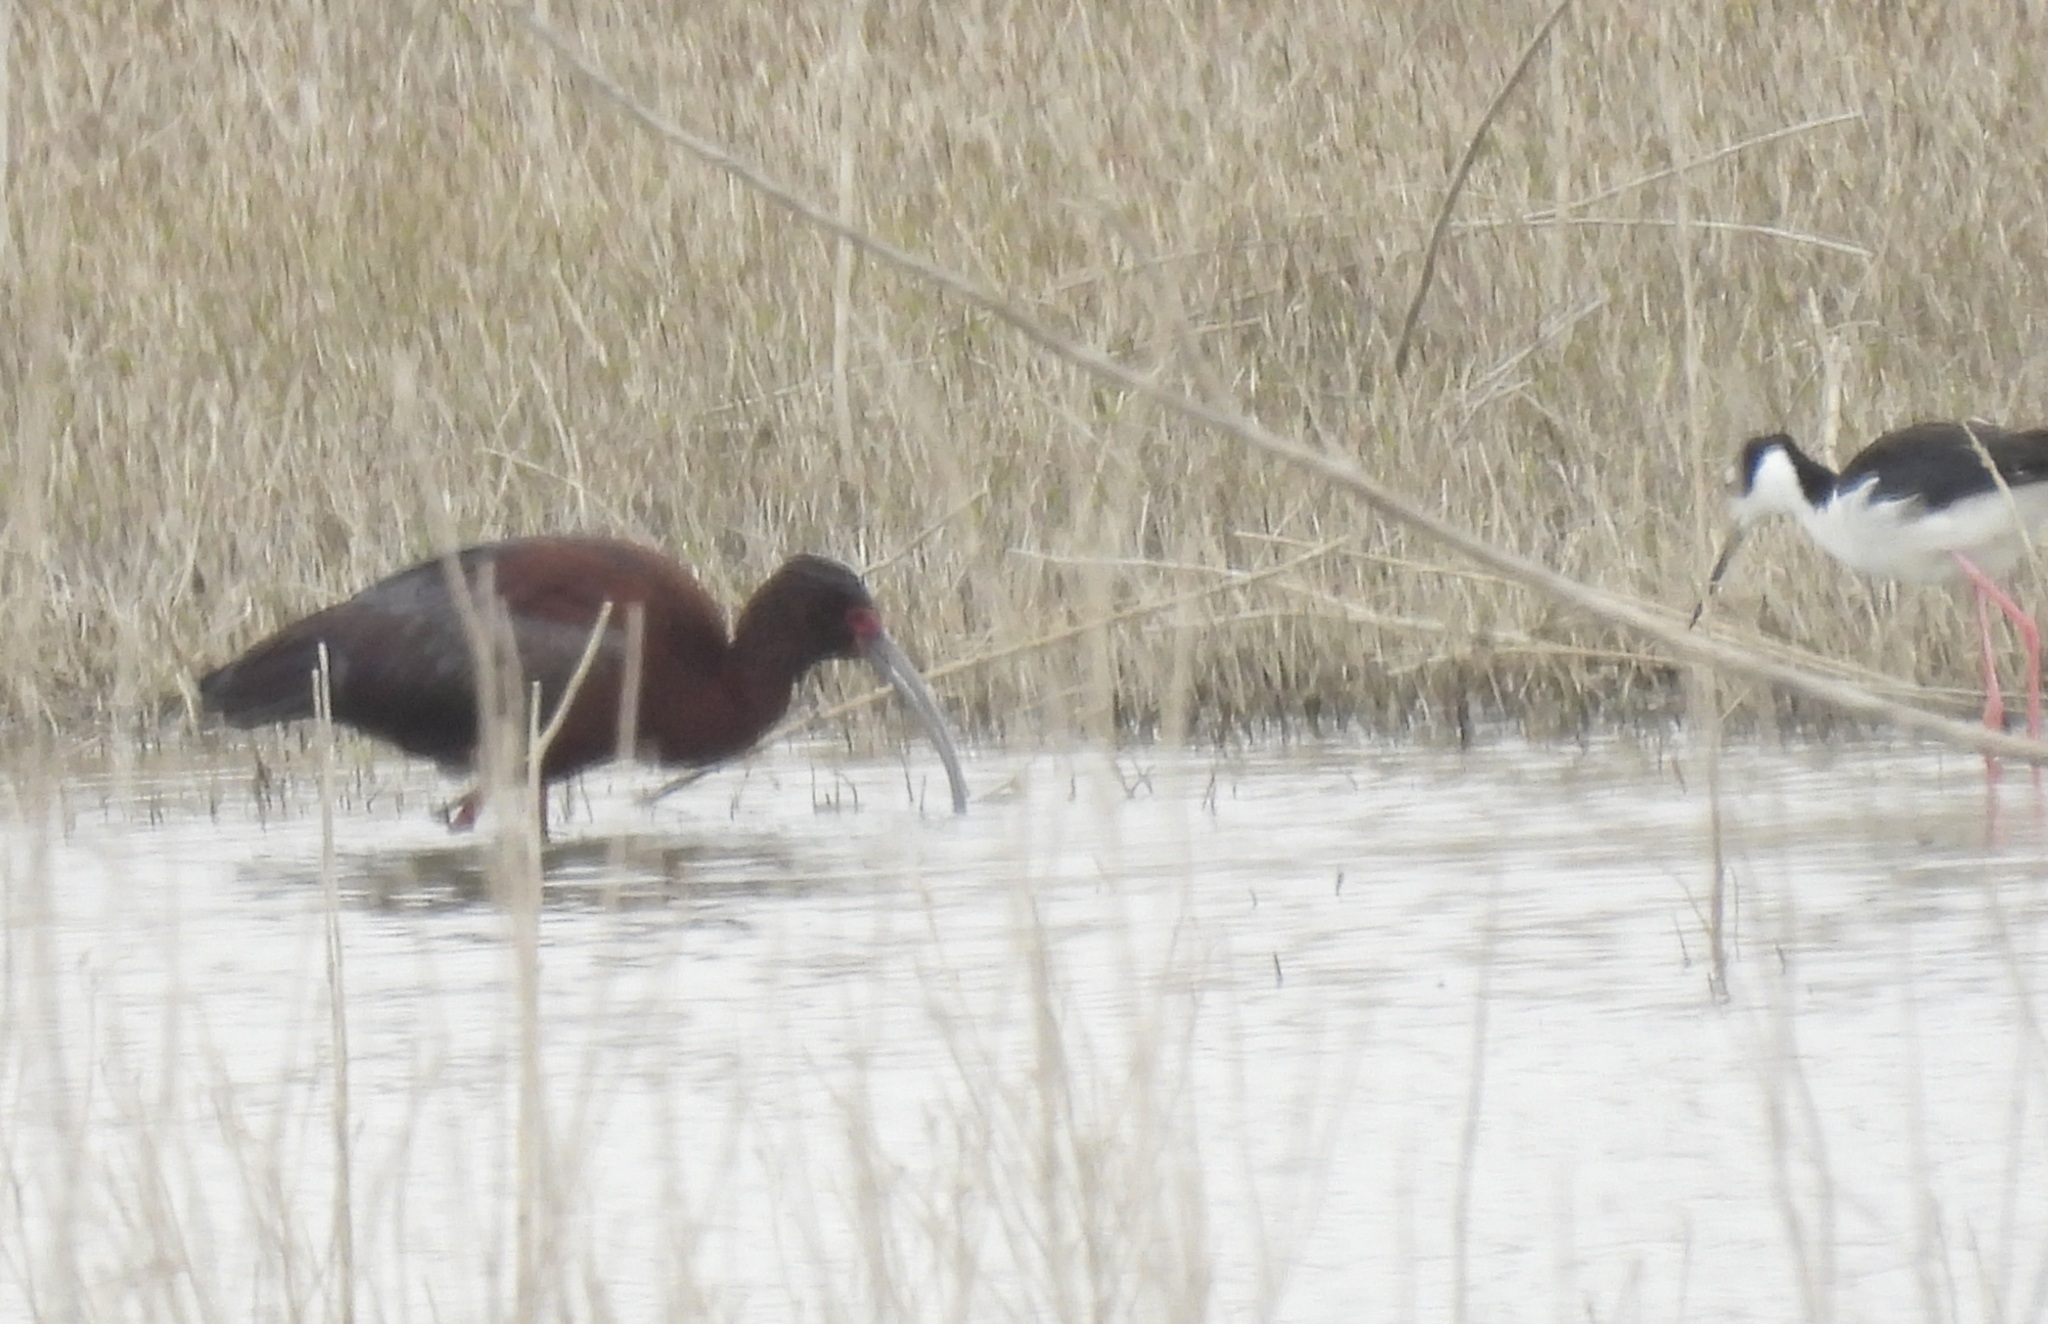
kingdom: Animalia
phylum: Chordata
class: Aves
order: Pelecaniformes
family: Threskiornithidae
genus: Plegadis
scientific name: Plegadis chihi
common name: White-faced ibis
